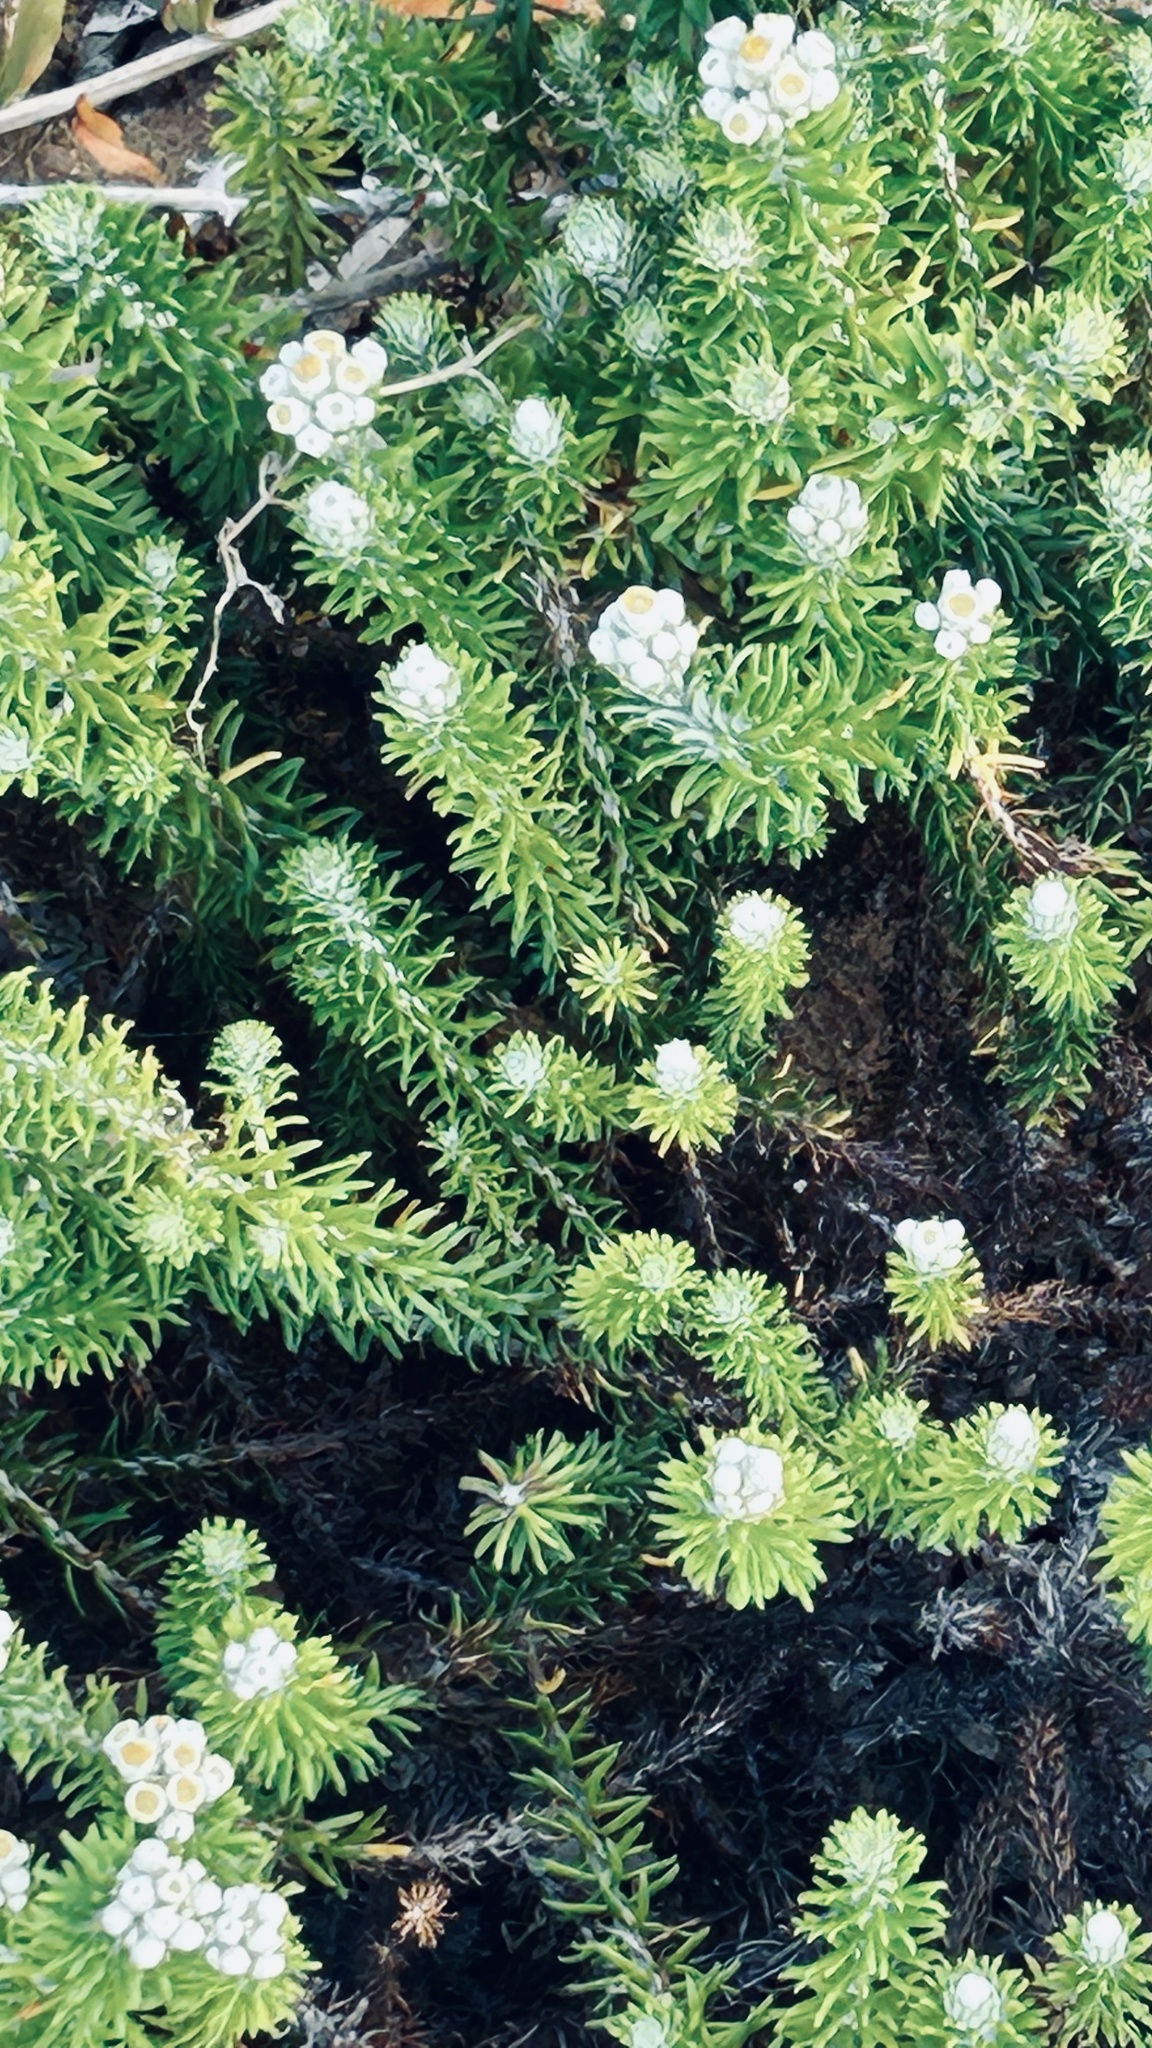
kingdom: Plantae
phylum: Tracheophyta
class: Magnoliopsida
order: Asterales
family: Asteraceae
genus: Helichrysum
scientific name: Helichrysum teretifolium
